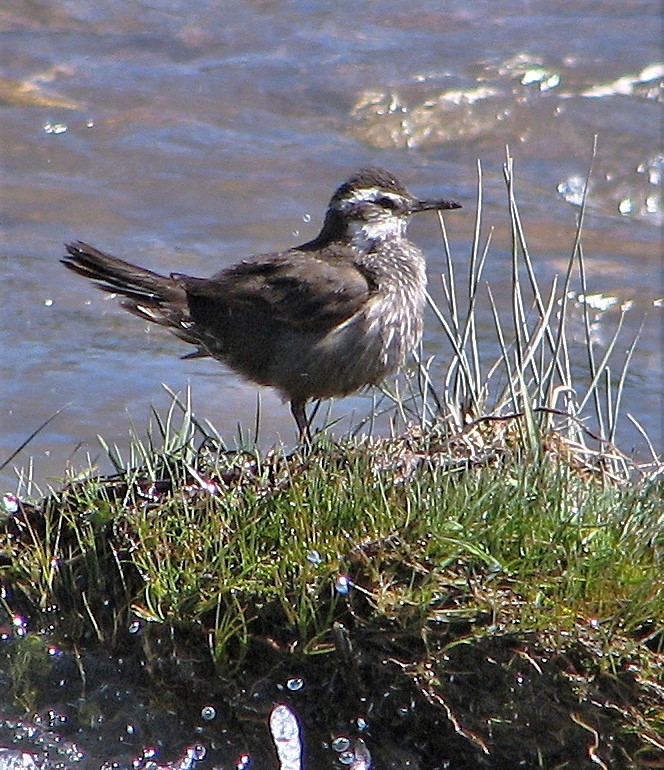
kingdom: Animalia
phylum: Chordata
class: Aves
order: Passeriformes
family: Furnariidae
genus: Cinclodes
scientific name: Cinclodes patagonicus
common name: Dark-bellied cinclodes
